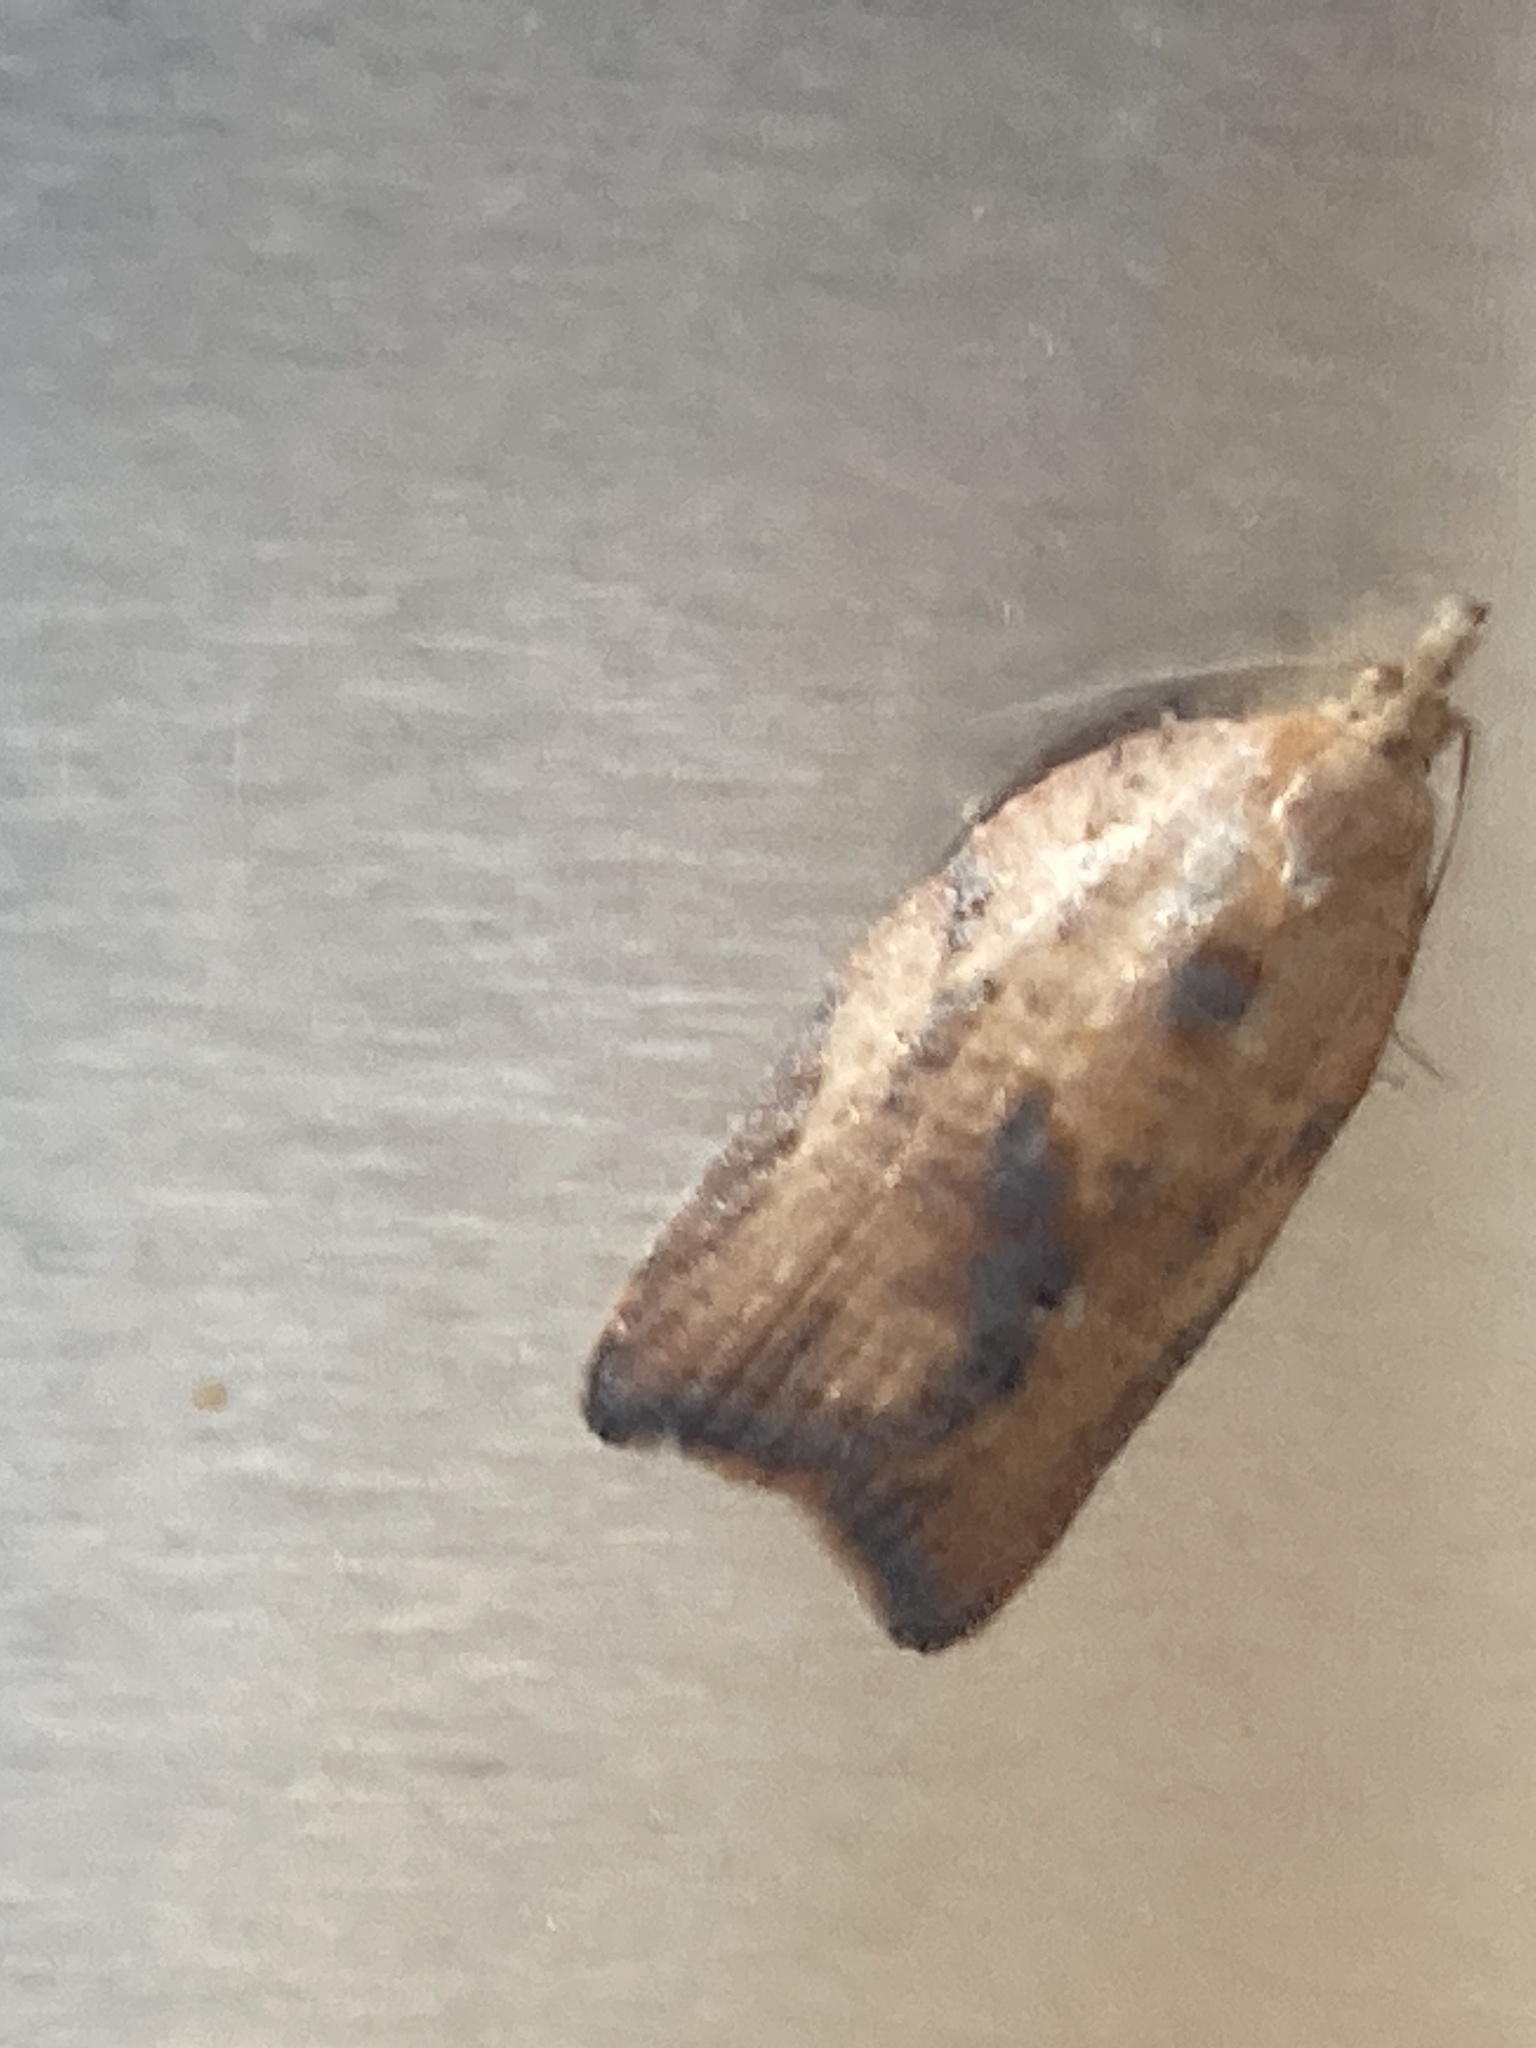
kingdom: Animalia
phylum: Arthropoda
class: Insecta
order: Lepidoptera
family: Tortricidae
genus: Epiphyas
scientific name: Epiphyas postvittana
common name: Light brown apple moth
